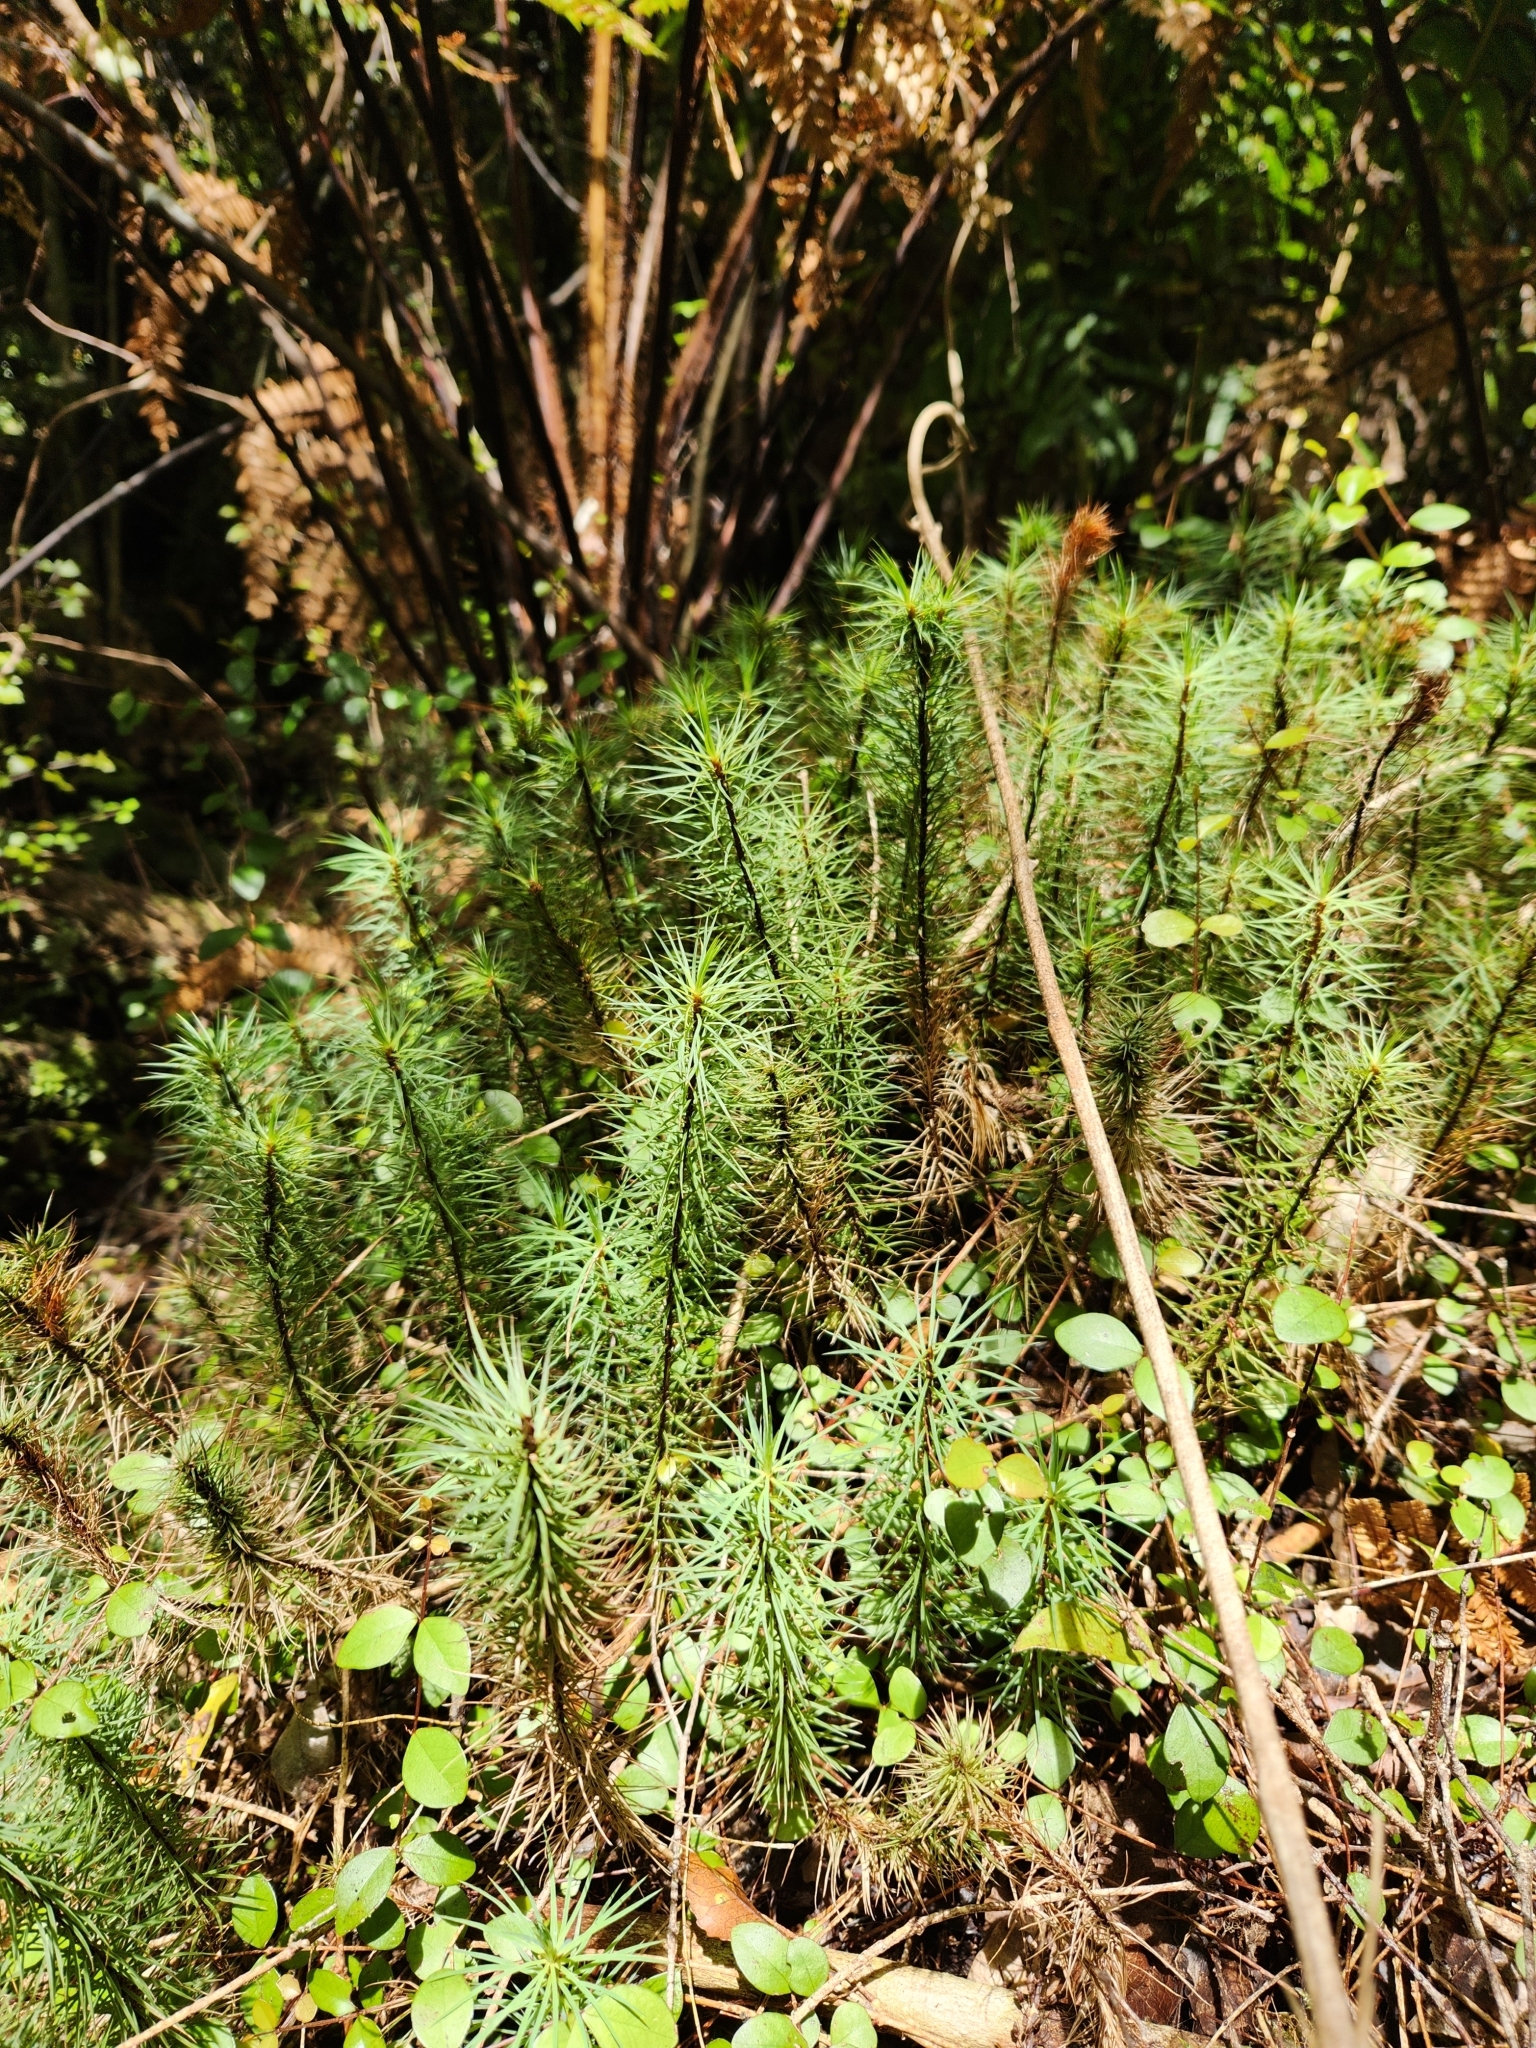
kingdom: Plantae
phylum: Bryophyta
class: Polytrichopsida
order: Polytrichales
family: Polytrichaceae
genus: Dawsonia
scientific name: Dawsonia superba
